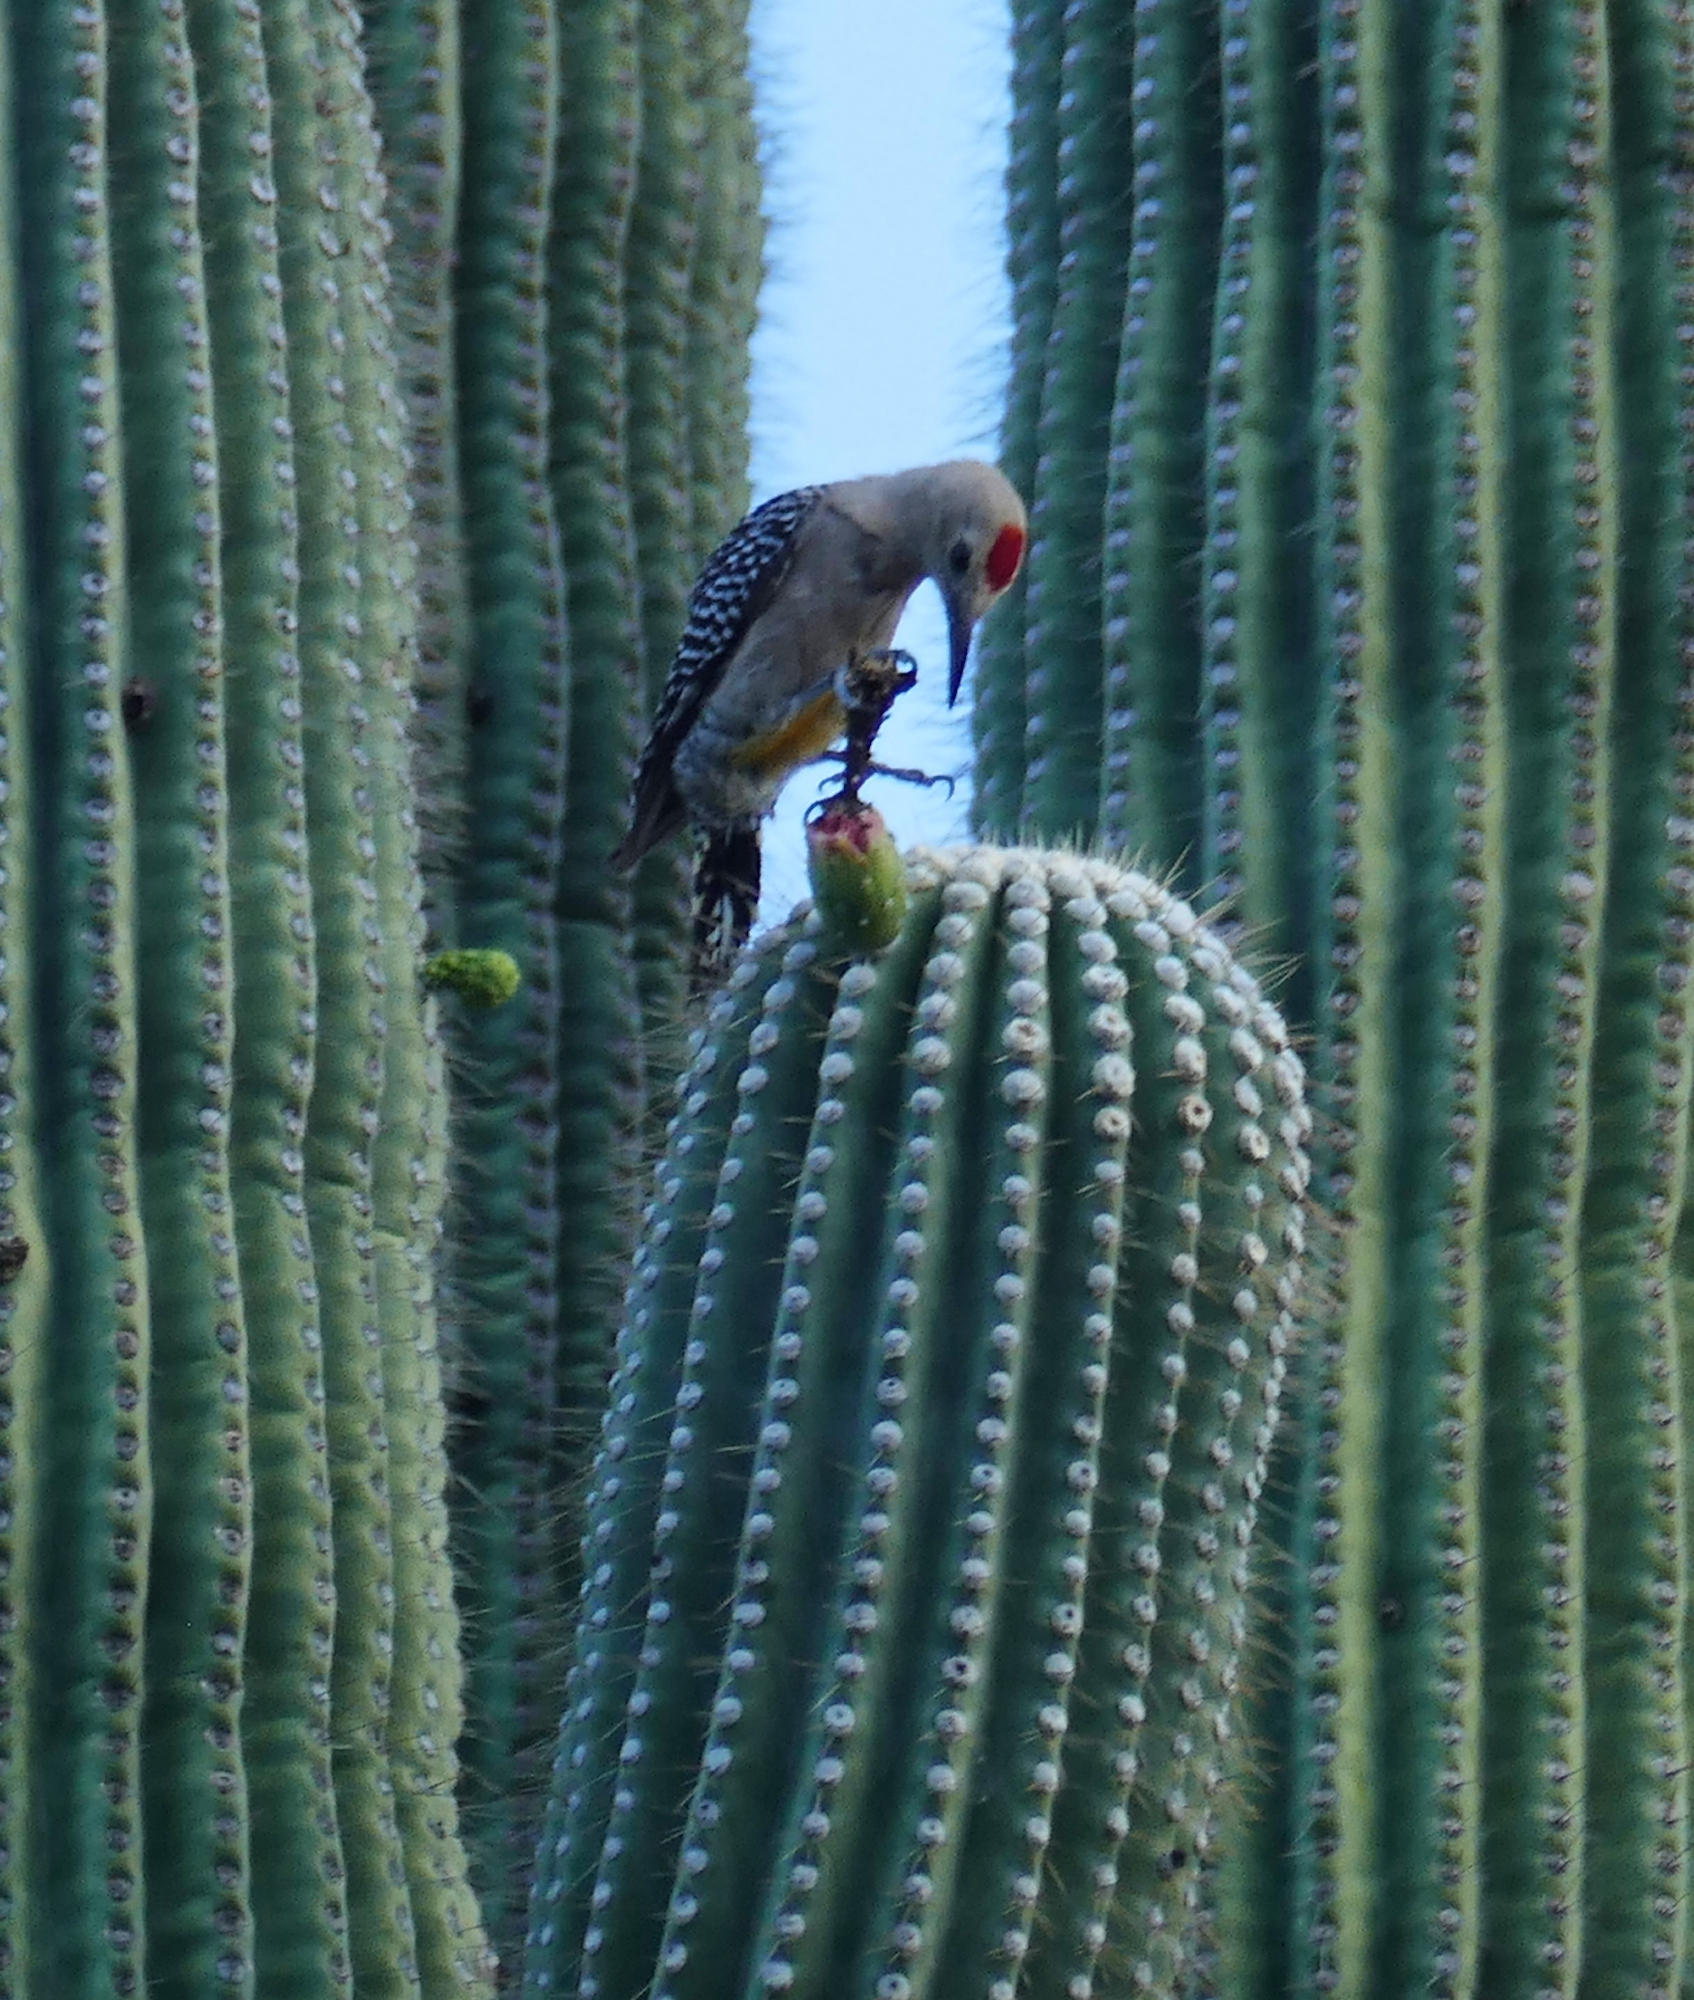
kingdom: Animalia
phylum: Chordata
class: Aves
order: Piciformes
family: Picidae
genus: Melanerpes
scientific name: Melanerpes uropygialis
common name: Gila woodpecker
